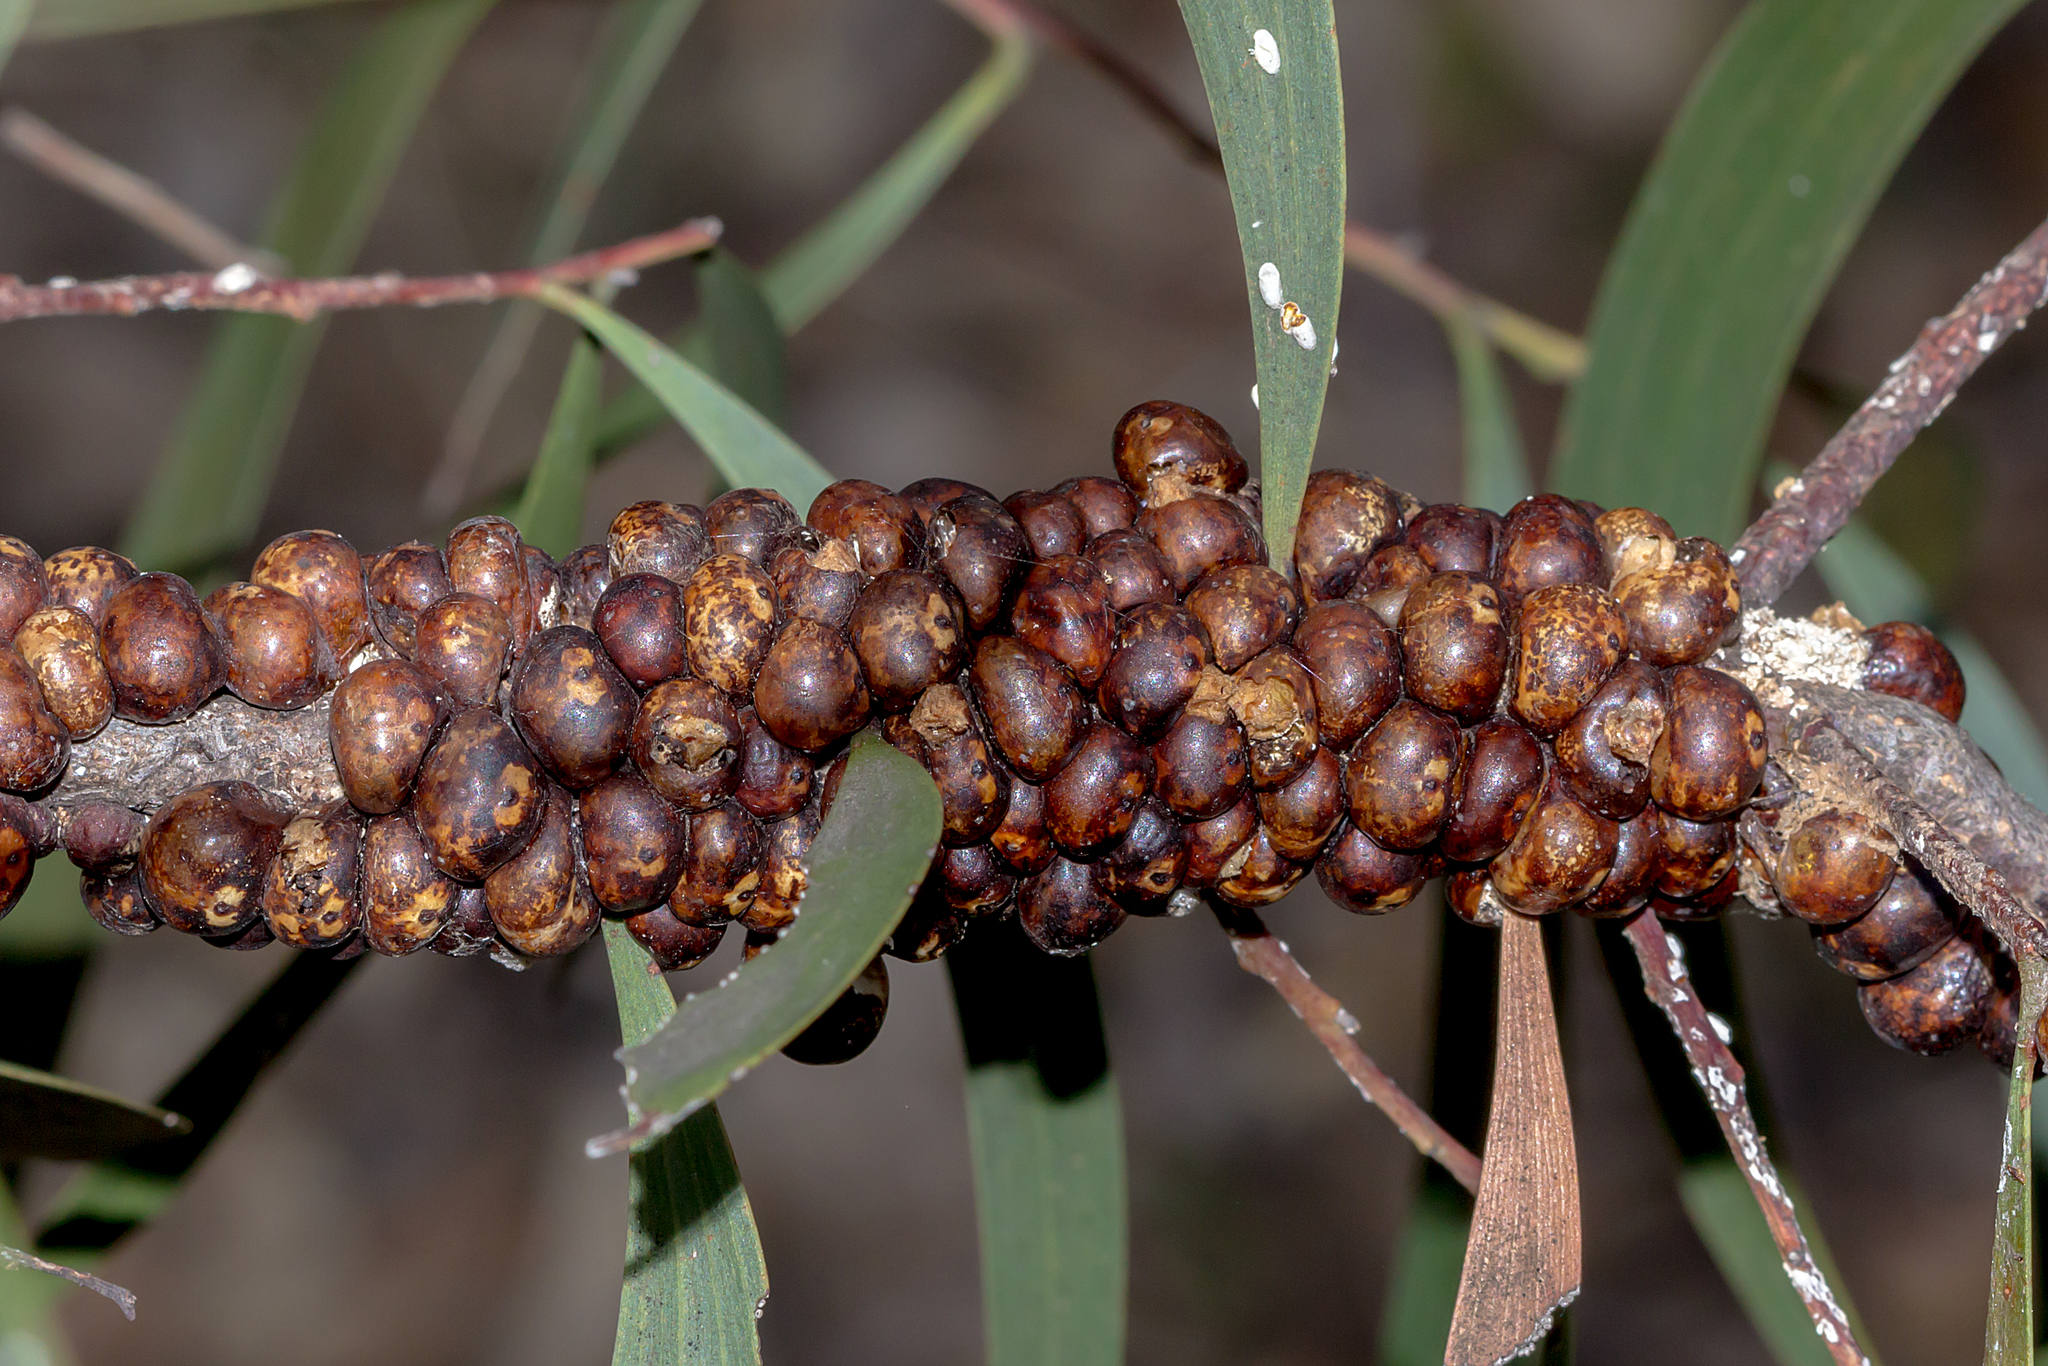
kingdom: Animalia
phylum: Arthropoda
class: Insecta
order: Hemiptera
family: Coccidae
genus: Cryptes
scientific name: Cryptes baccatus
